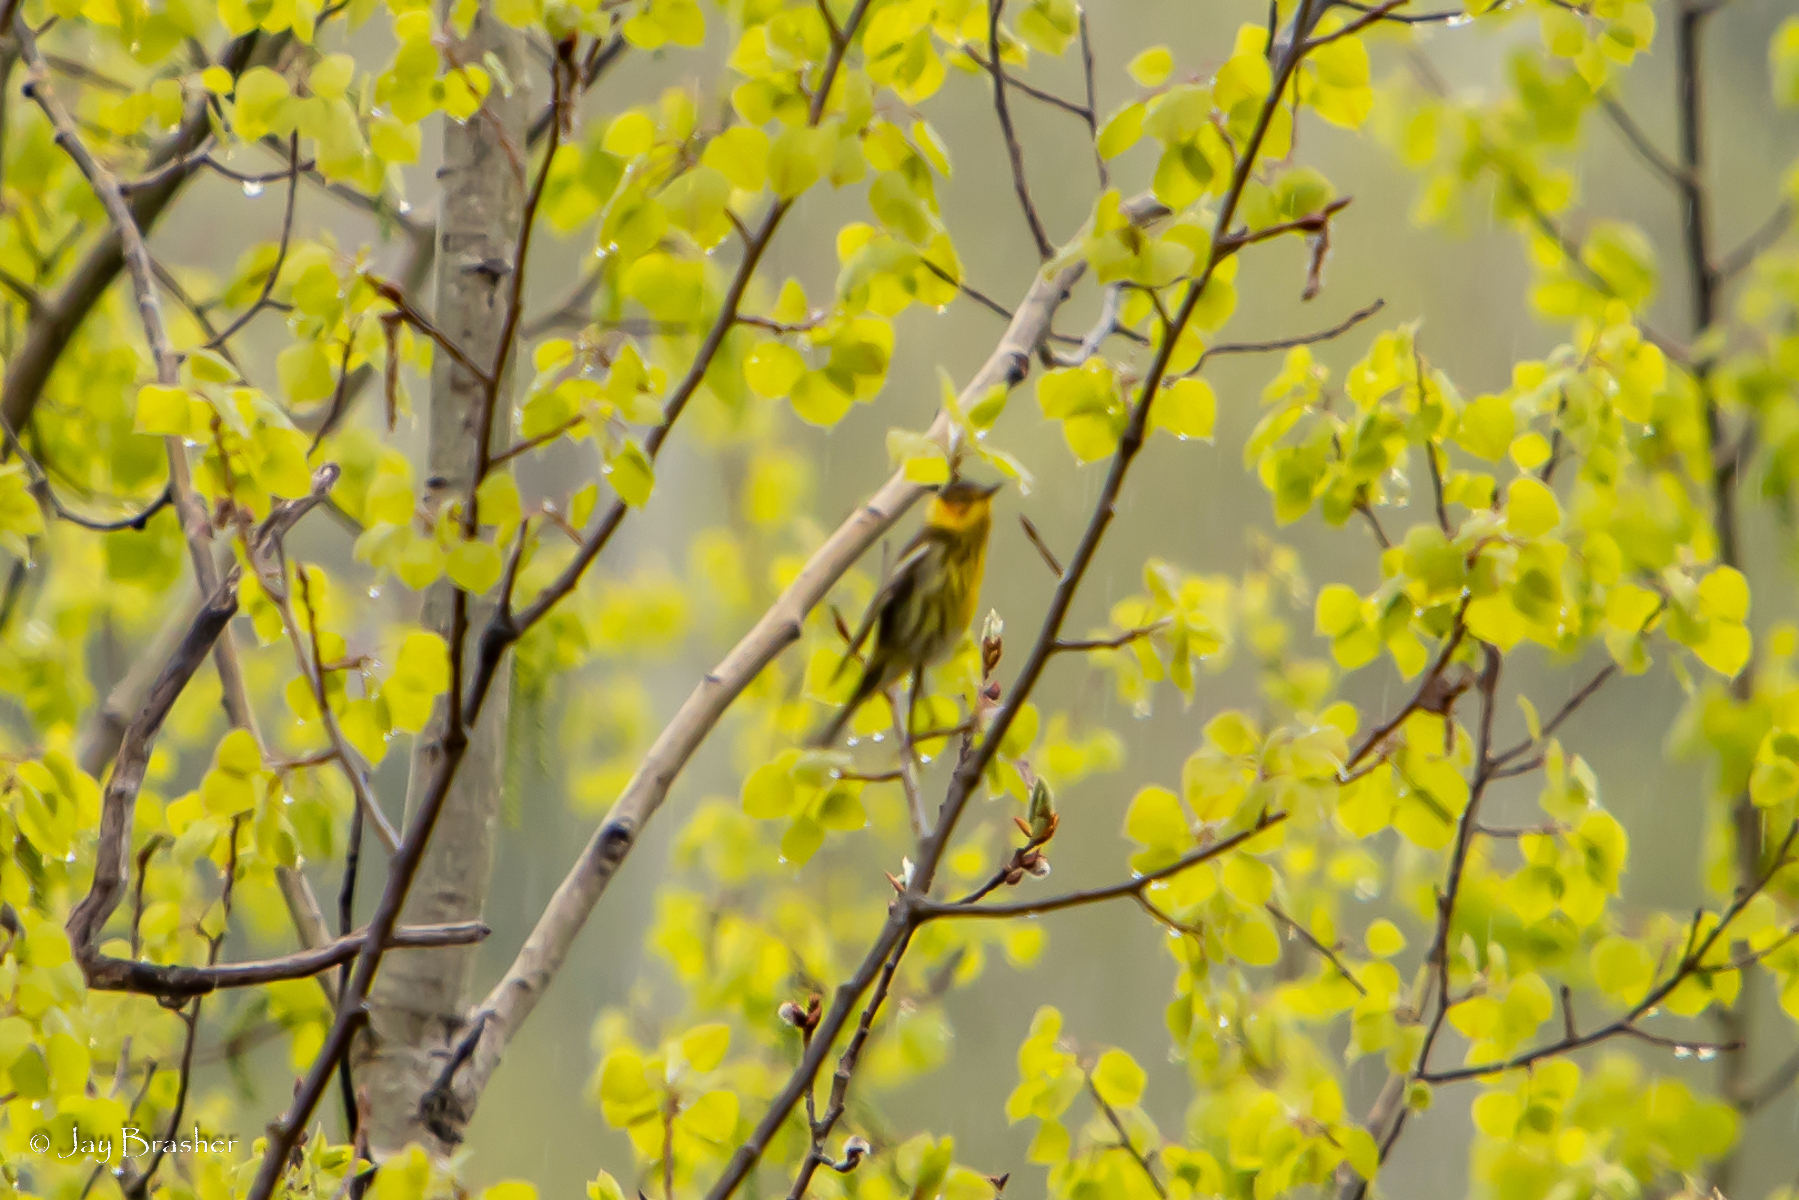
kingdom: Animalia
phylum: Chordata
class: Aves
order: Passeriformes
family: Parulidae
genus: Setophaga
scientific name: Setophaga tigrina
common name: Cape may warbler
